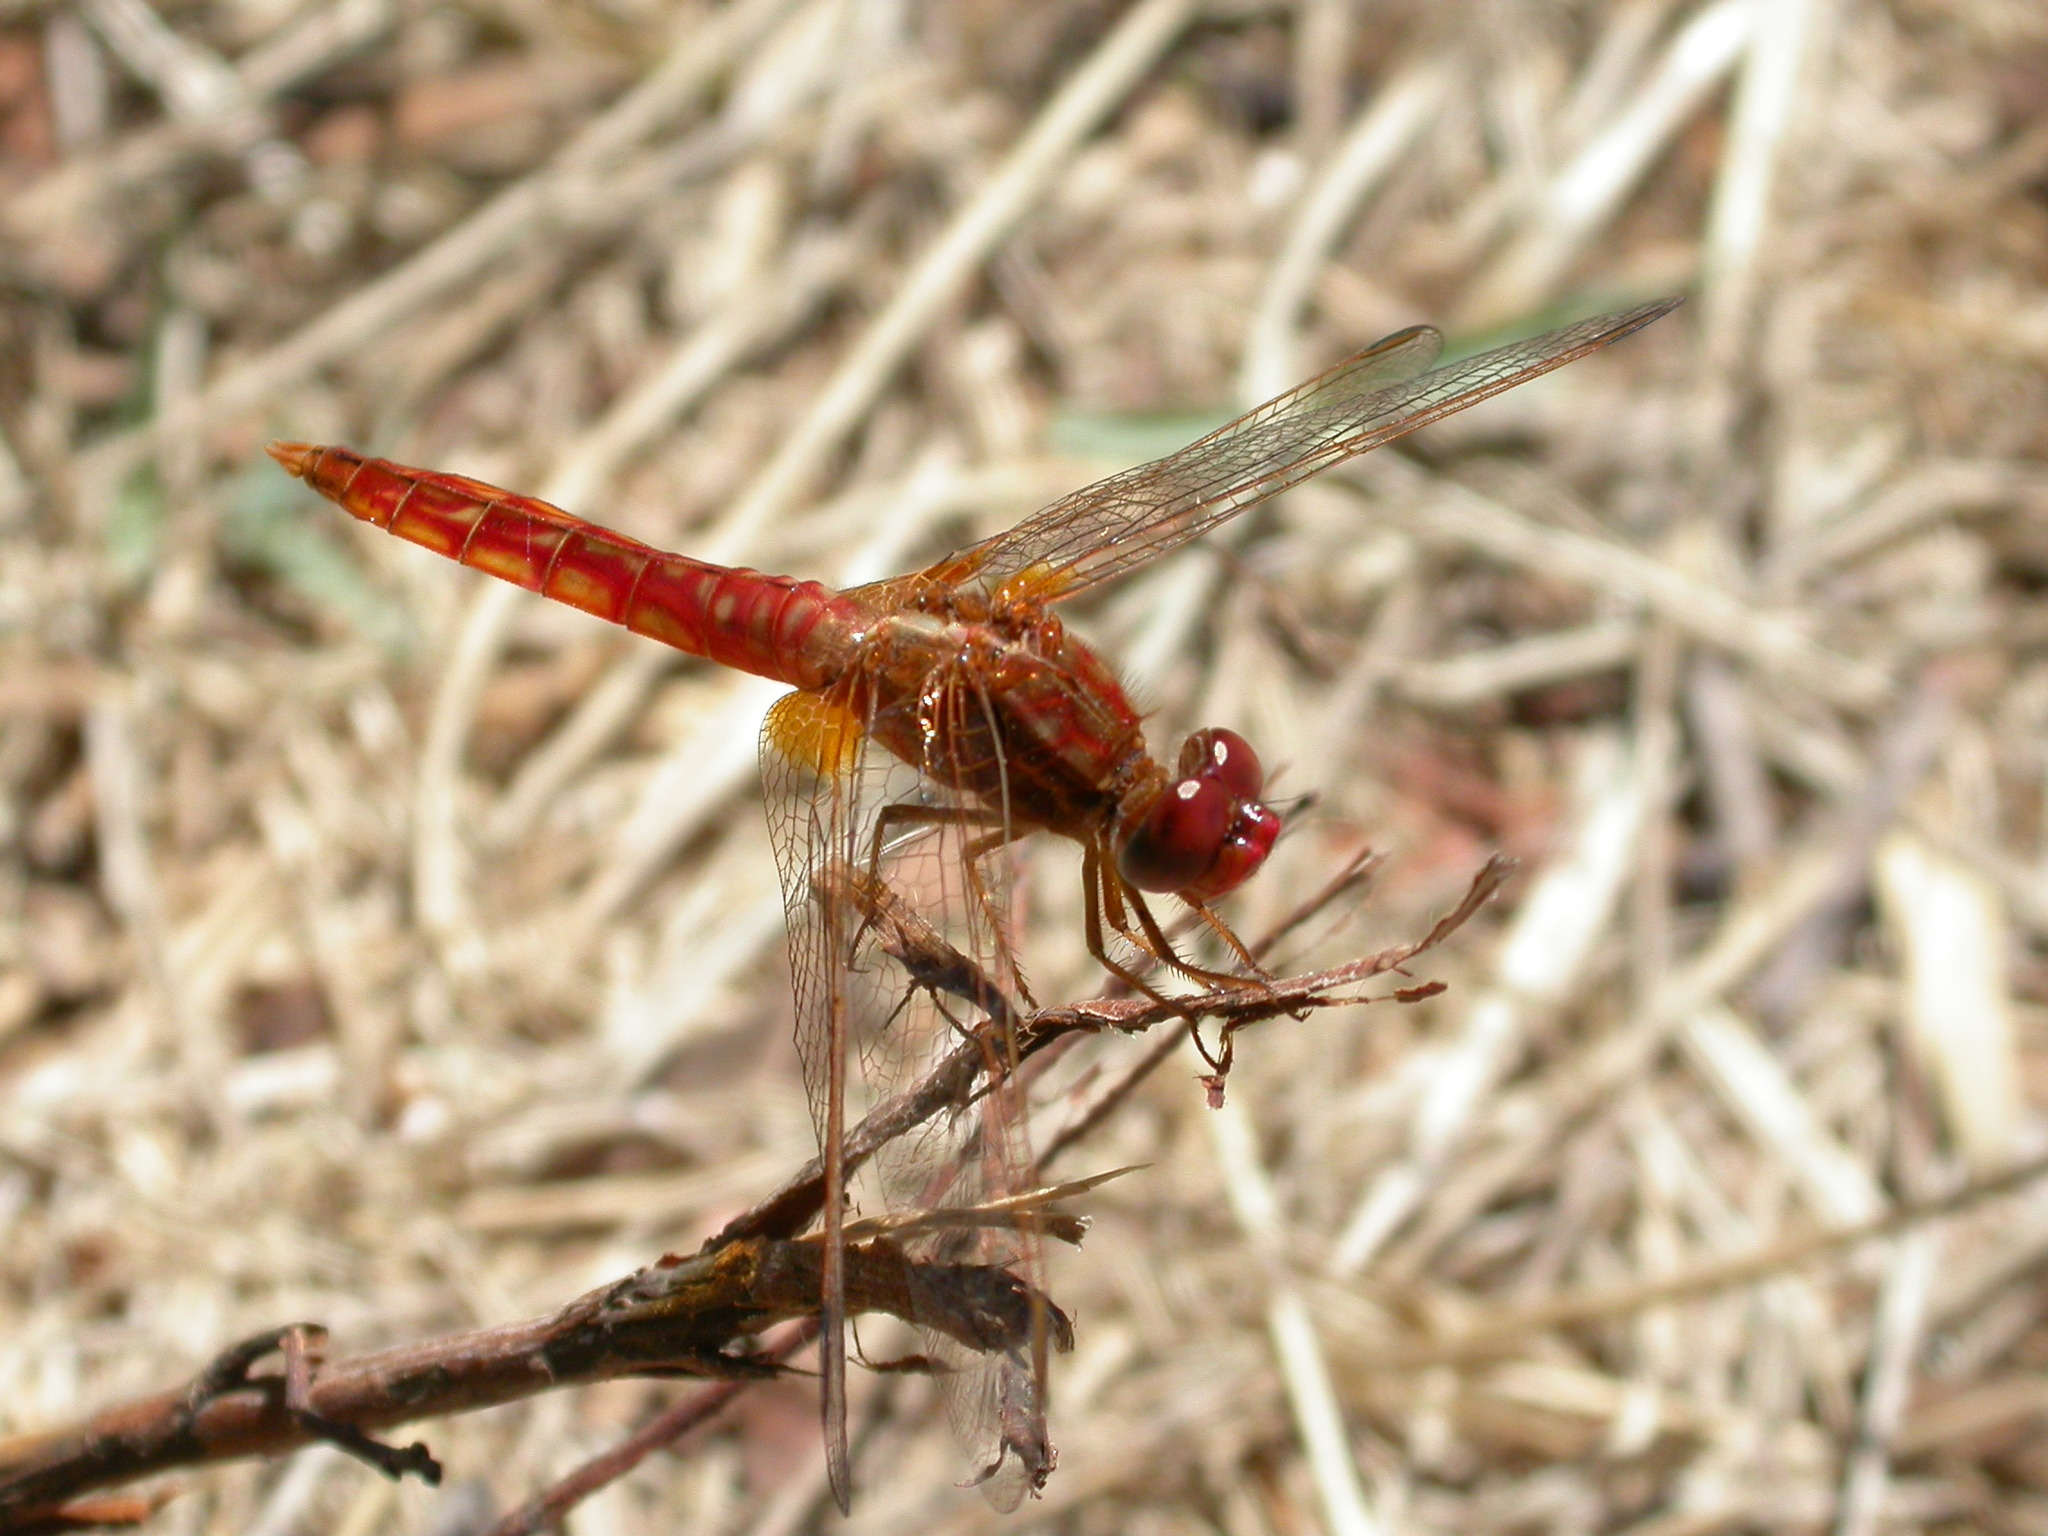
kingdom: Animalia
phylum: Arthropoda
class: Insecta
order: Odonata
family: Libellulidae
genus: Crocothemis
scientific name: Crocothemis erythraea
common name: Scarlet dragonfly
